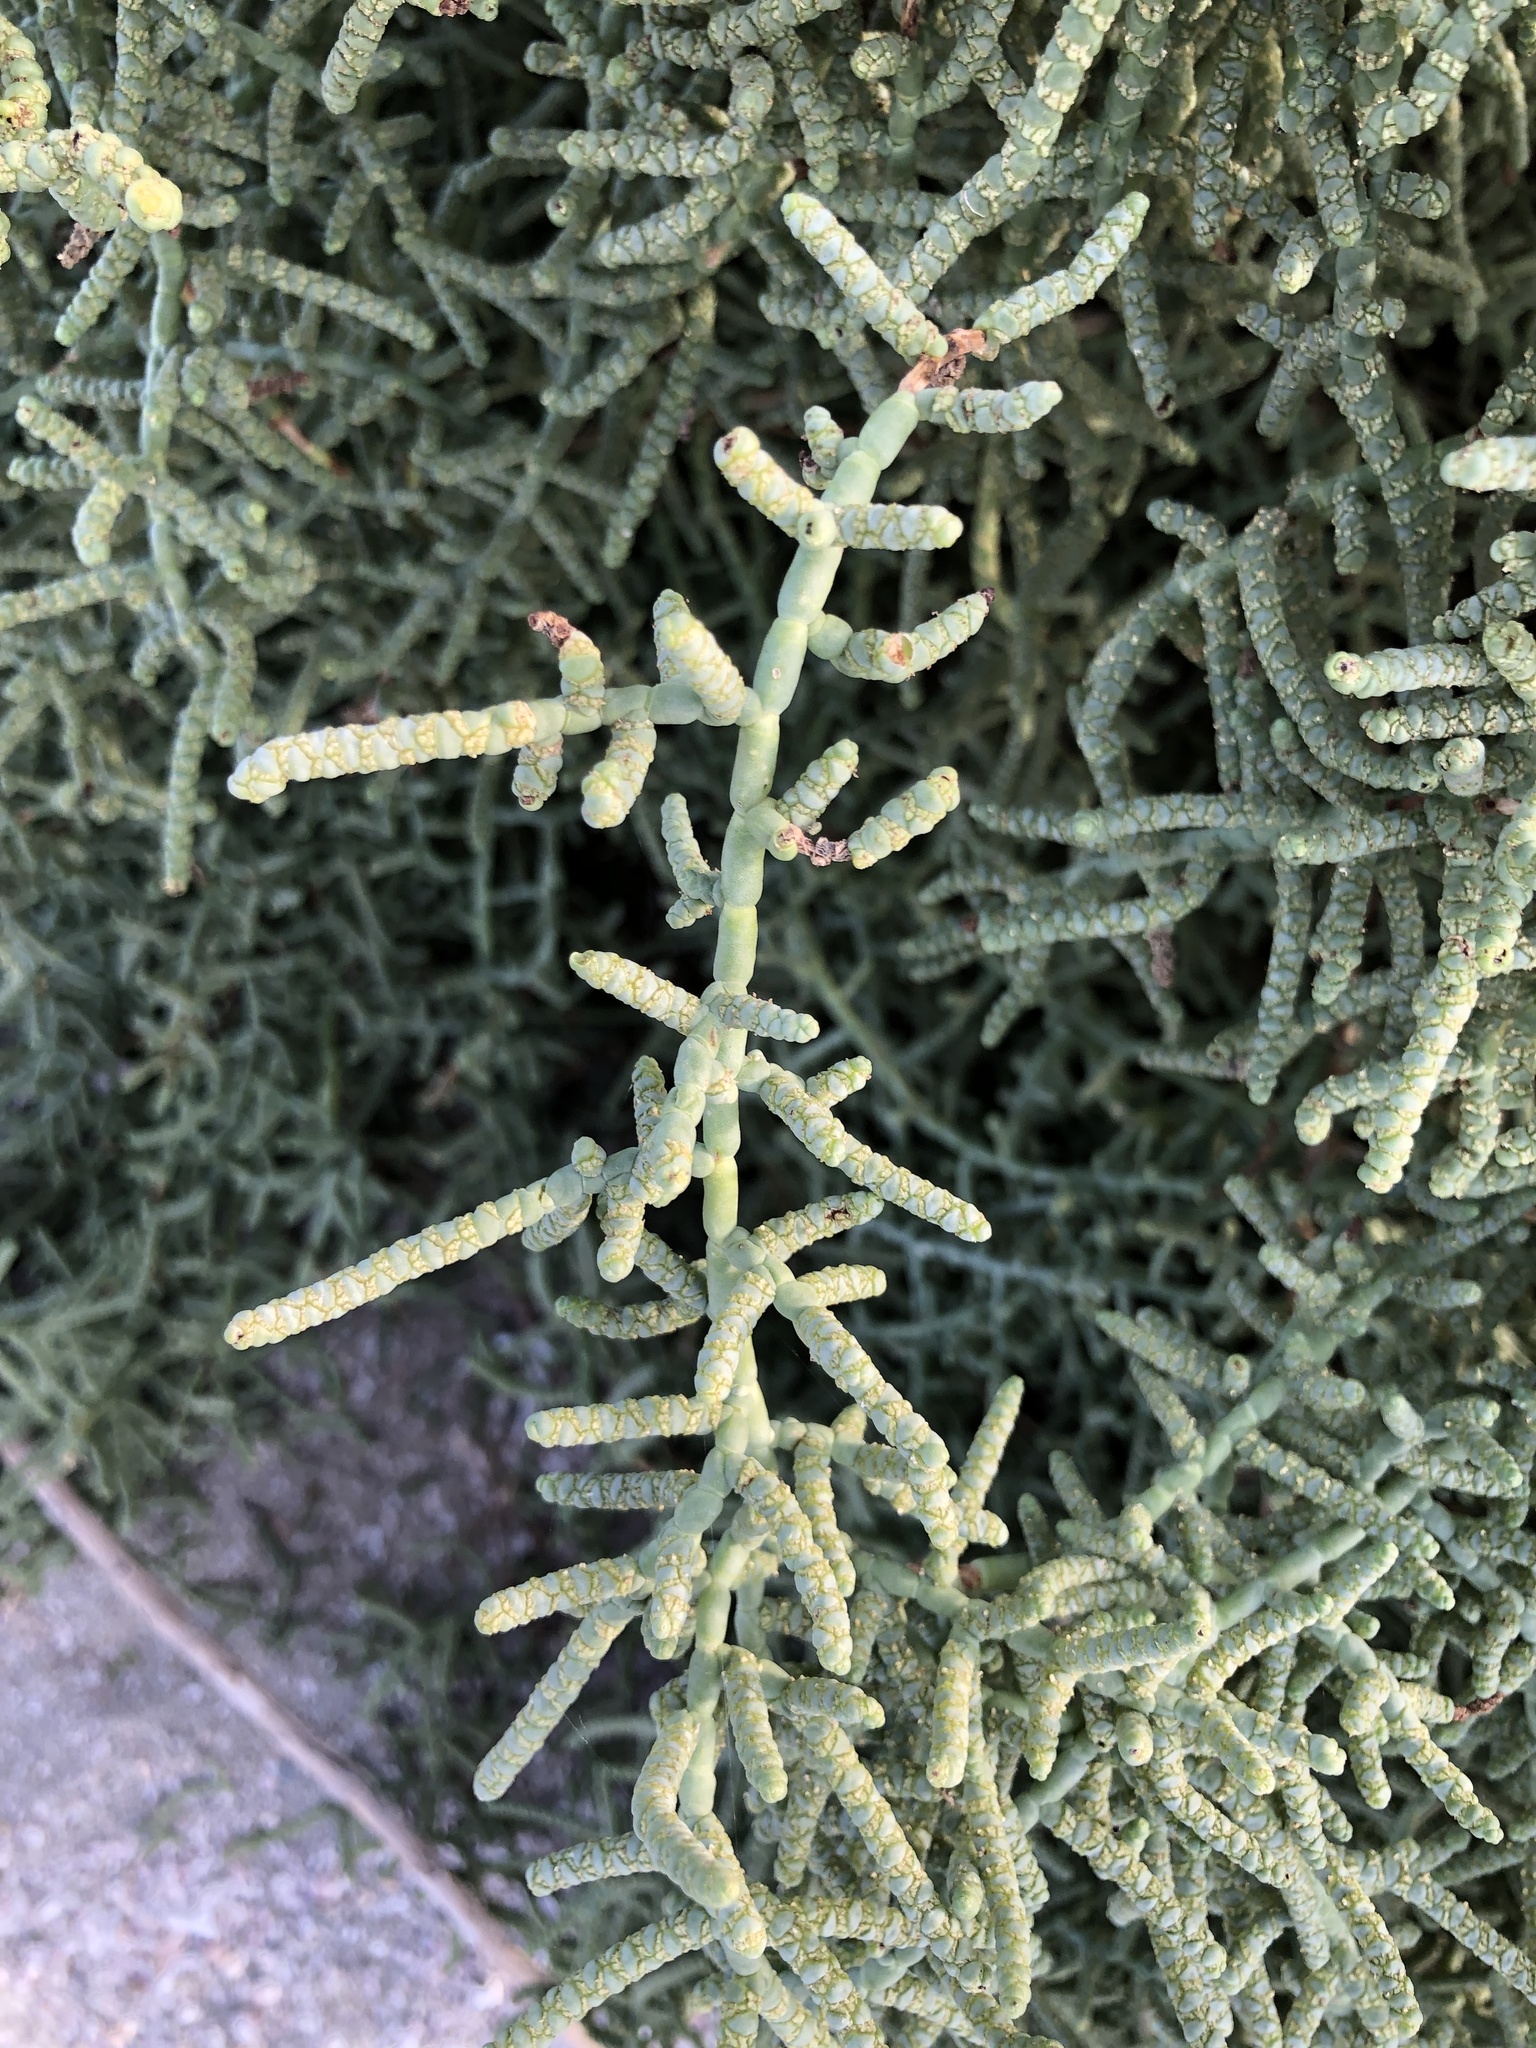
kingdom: Plantae
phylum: Tracheophyta
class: Magnoliopsida
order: Caryophyllales
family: Amaranthaceae
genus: Allenrolfea
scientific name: Allenrolfea occidentalis
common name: Iodine-bush
